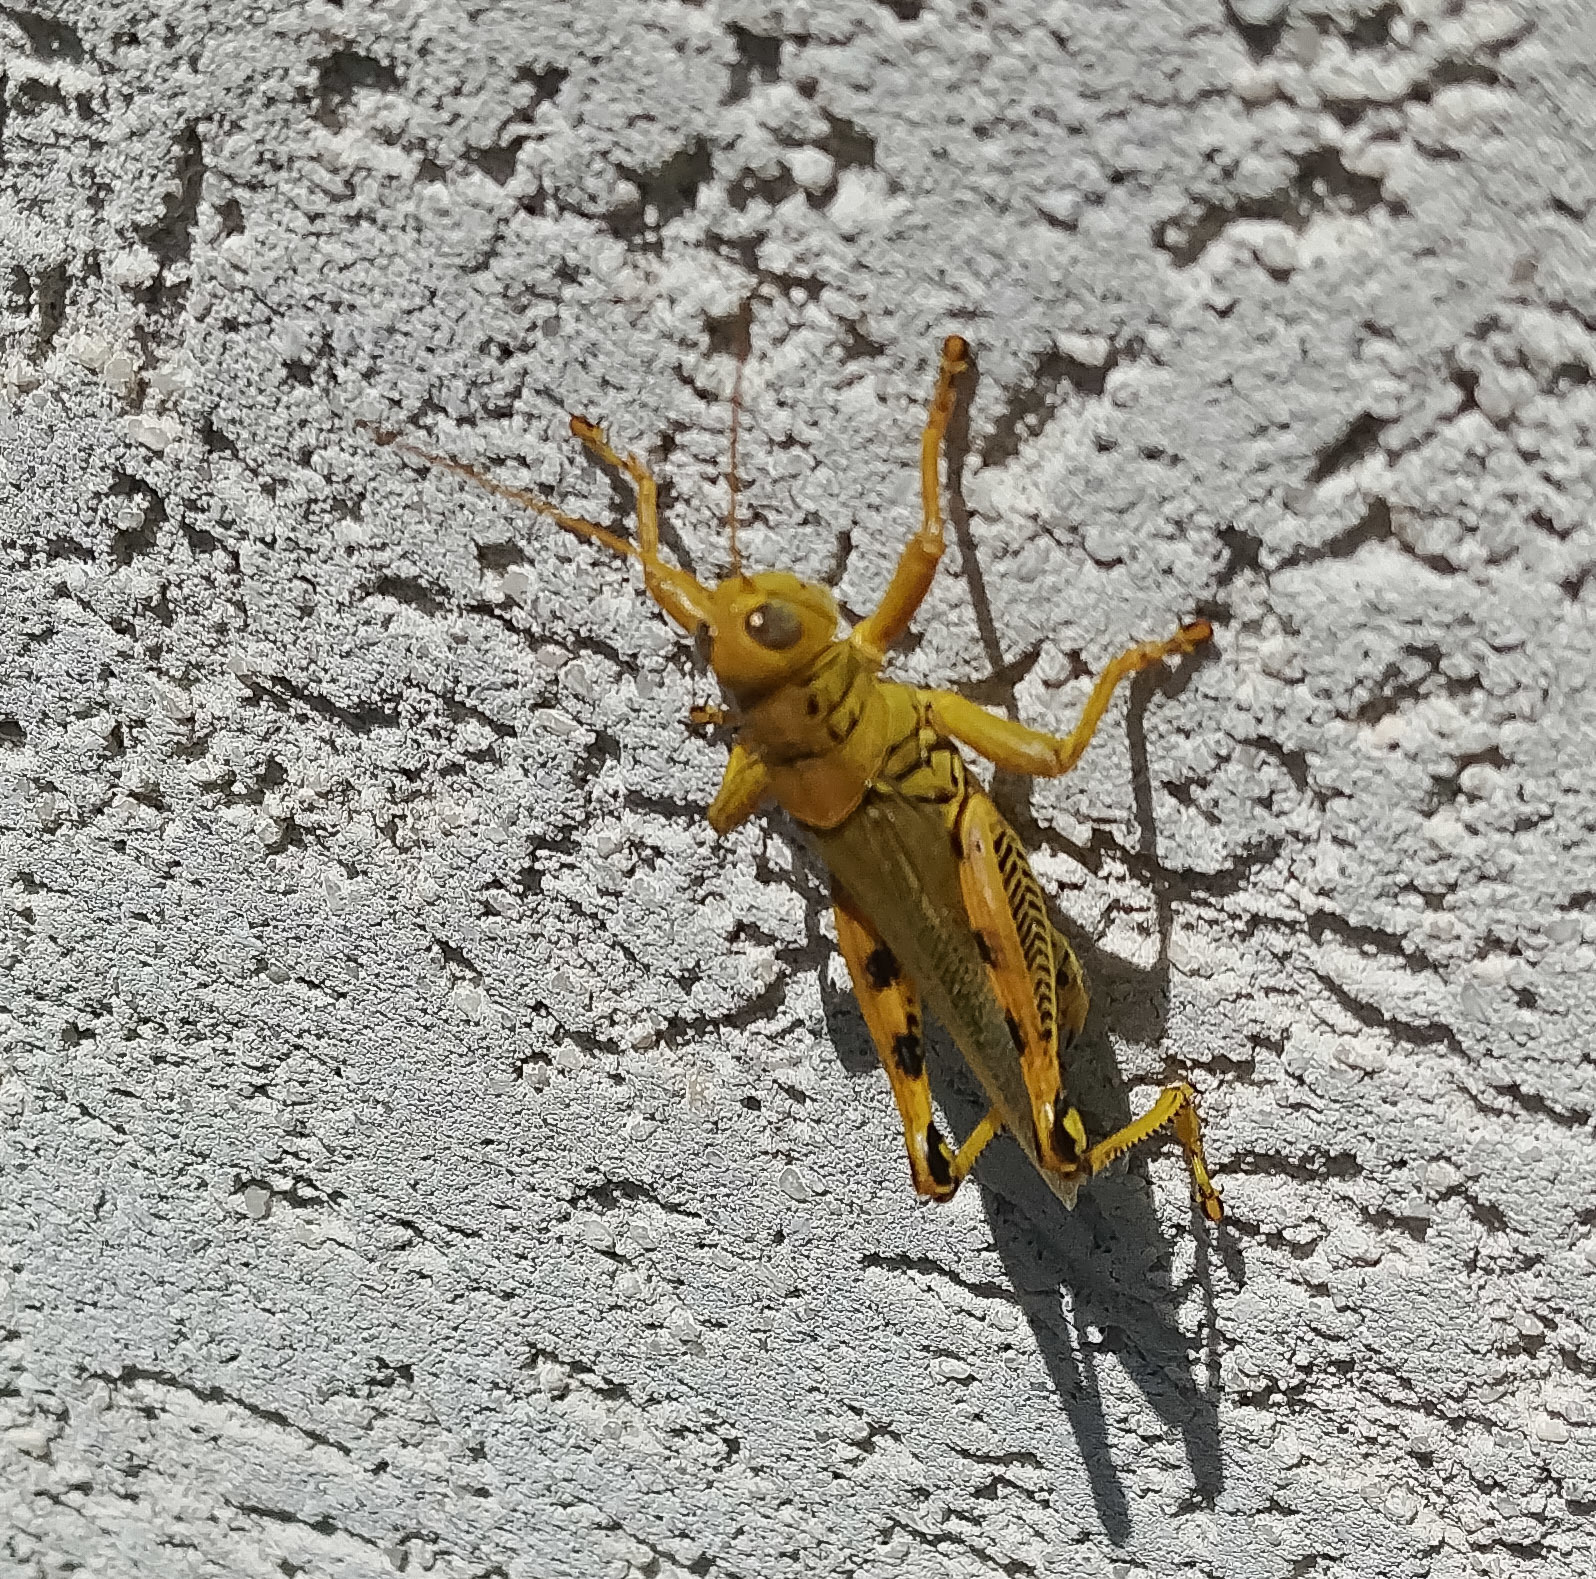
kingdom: Animalia
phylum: Arthropoda
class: Insecta
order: Orthoptera
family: Acrididae
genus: Melanoplus
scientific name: Melanoplus differentialis
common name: Differential grasshopper
